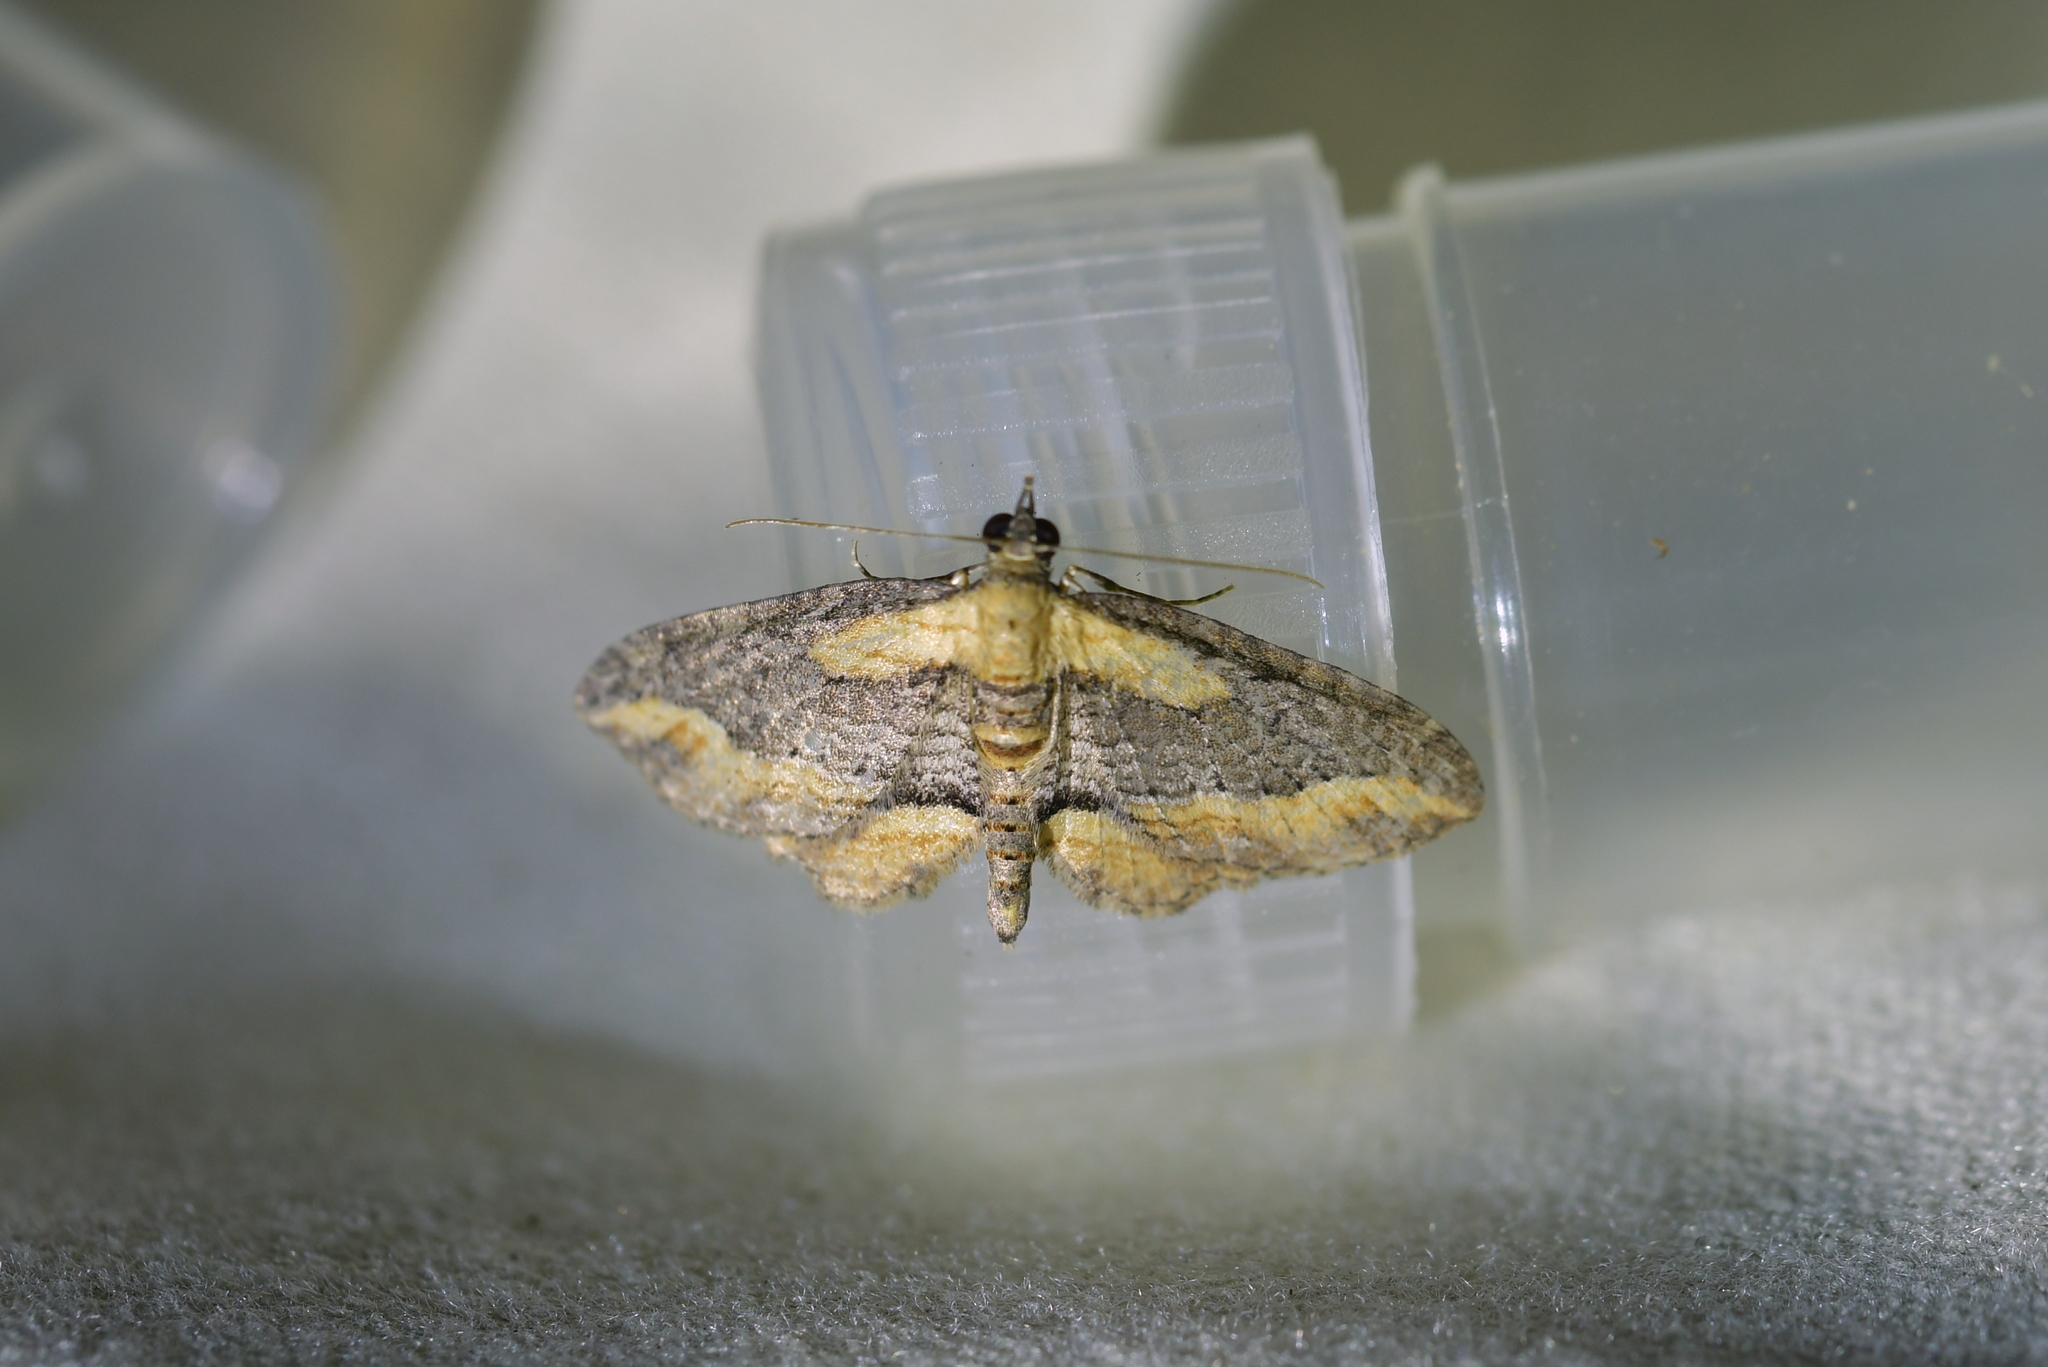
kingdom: Animalia
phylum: Arthropoda
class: Insecta
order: Lepidoptera
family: Geometridae
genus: Chloroclystis
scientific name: Chloroclystis filata
